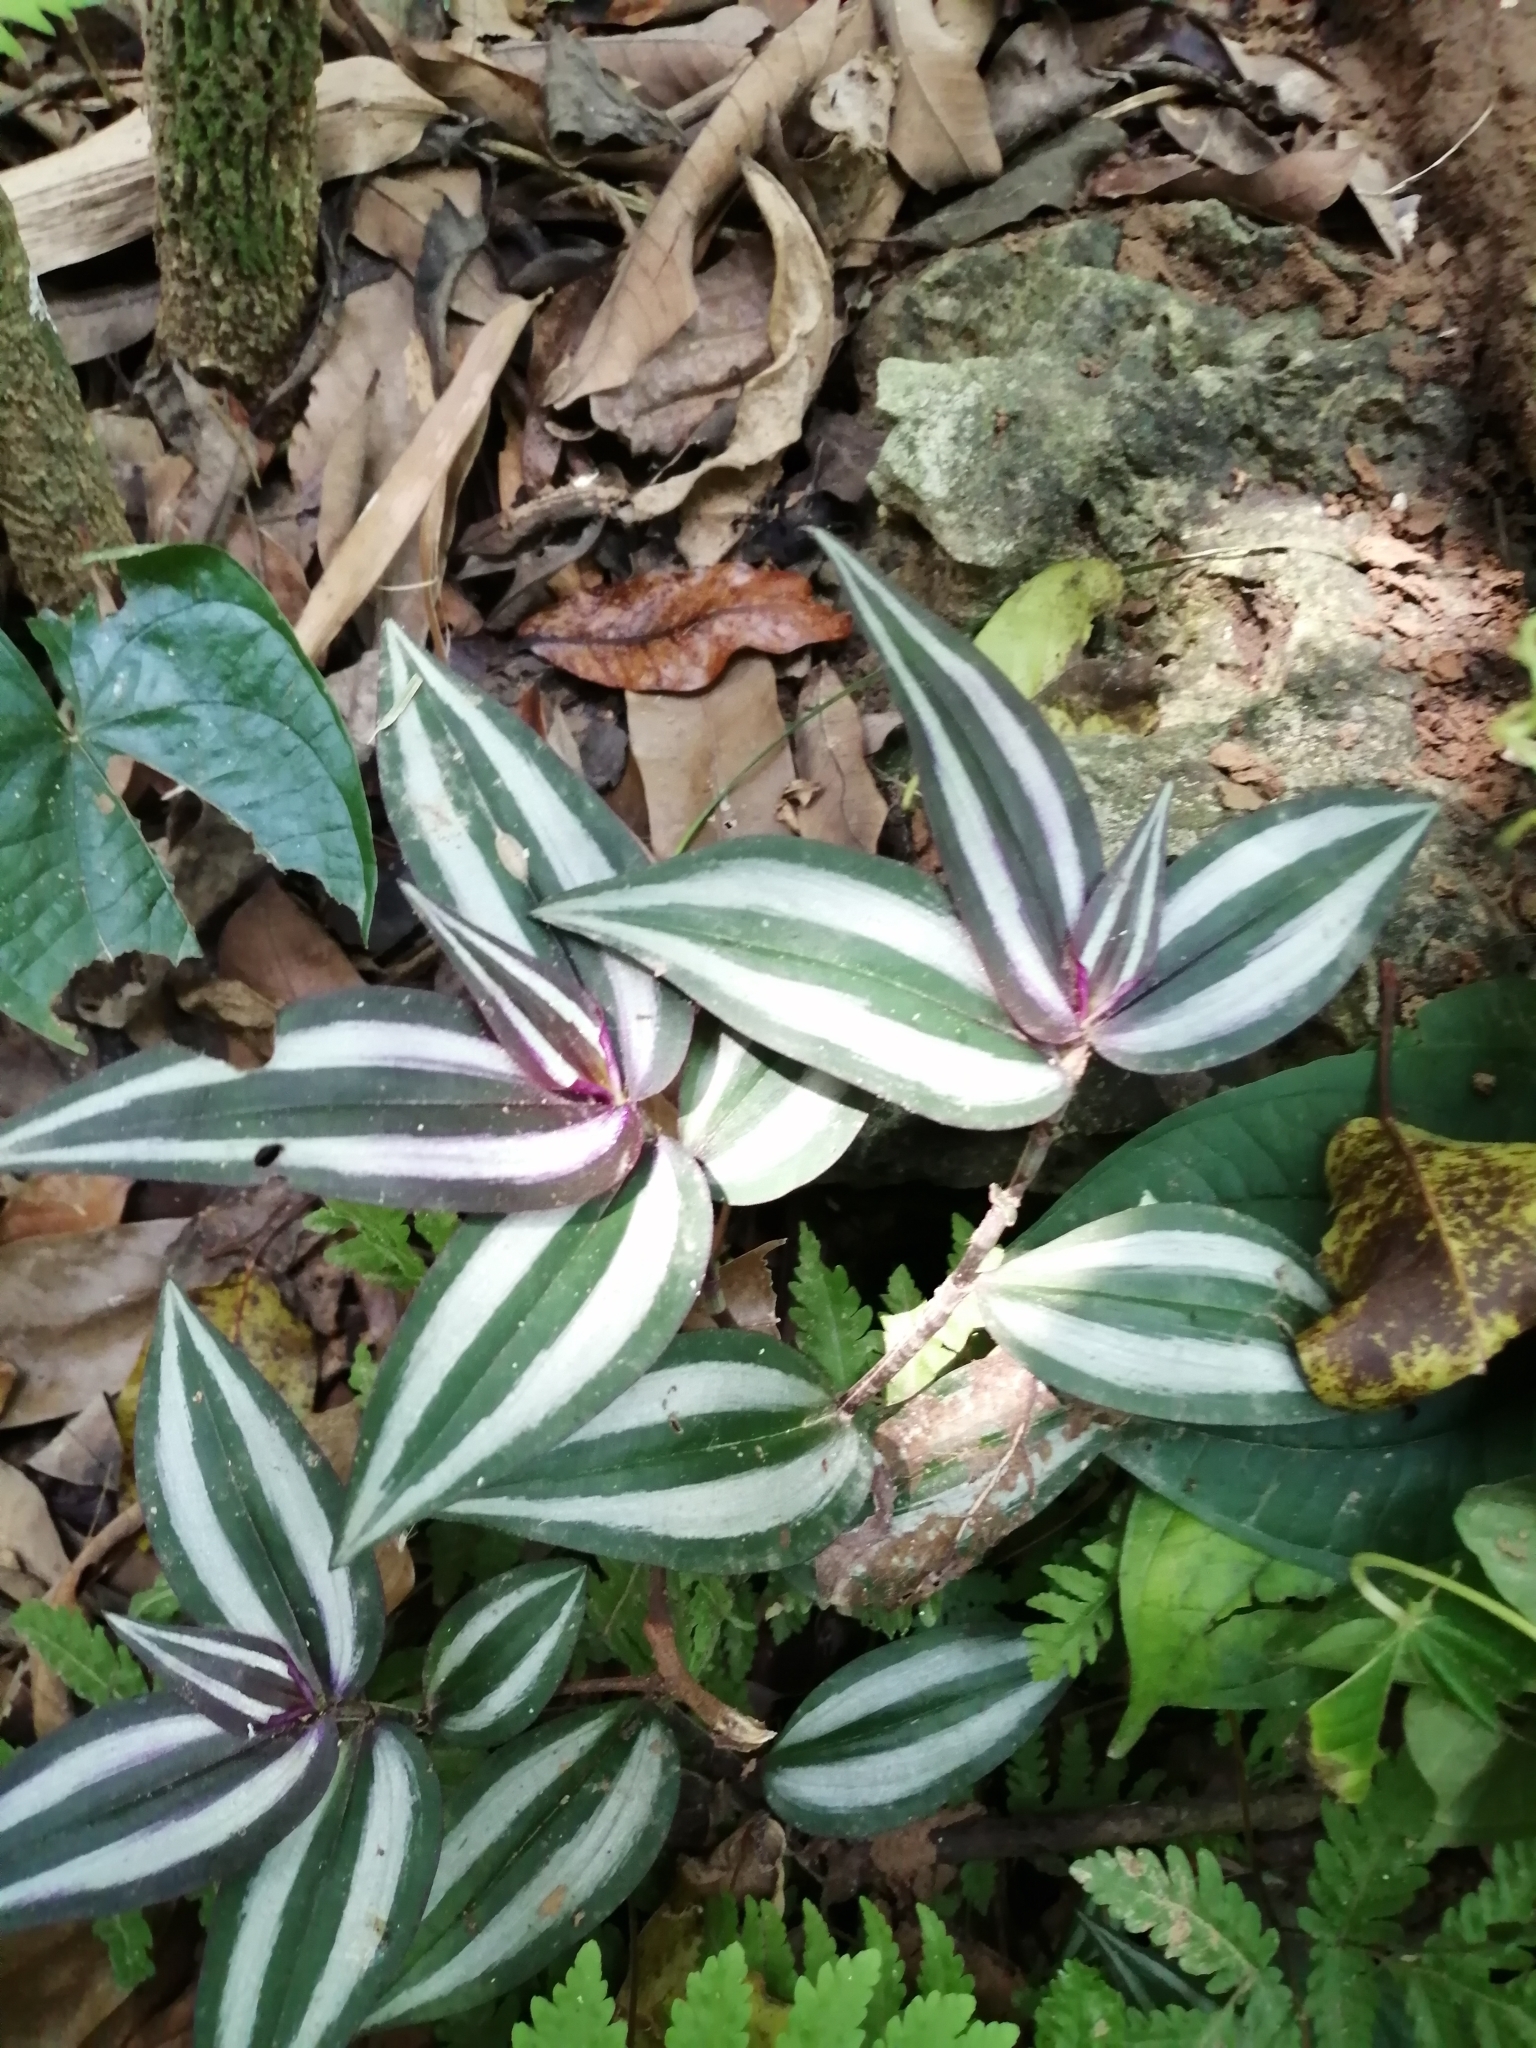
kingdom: Plantae
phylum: Tracheophyta
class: Liliopsida
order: Commelinales
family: Commelinaceae
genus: Tradescantia
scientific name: Tradescantia zebrina
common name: Inchplant
